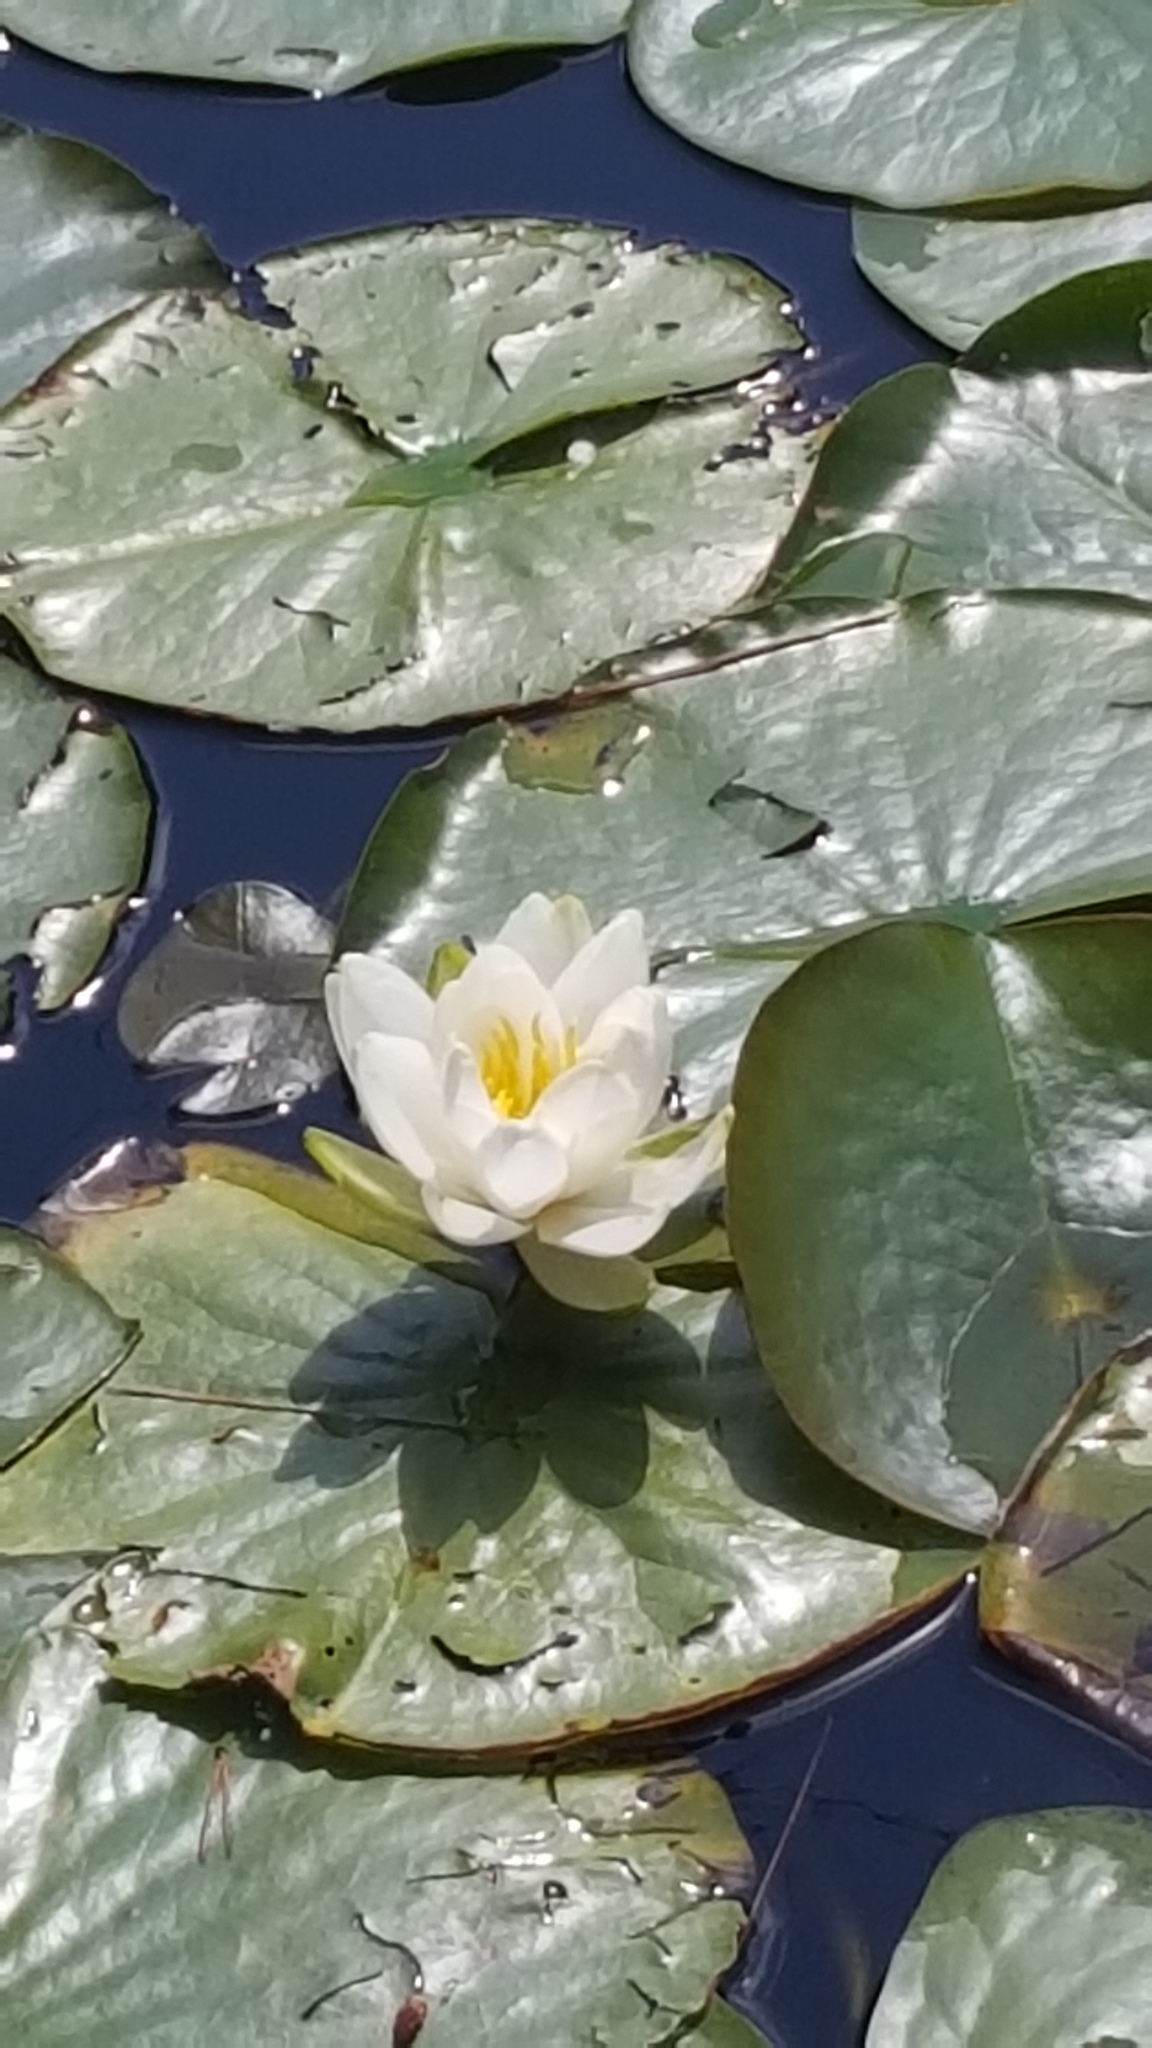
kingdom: Plantae
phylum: Tracheophyta
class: Magnoliopsida
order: Nymphaeales
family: Nymphaeaceae
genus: Nymphaea
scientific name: Nymphaea odorata
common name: Fragrant water-lily
